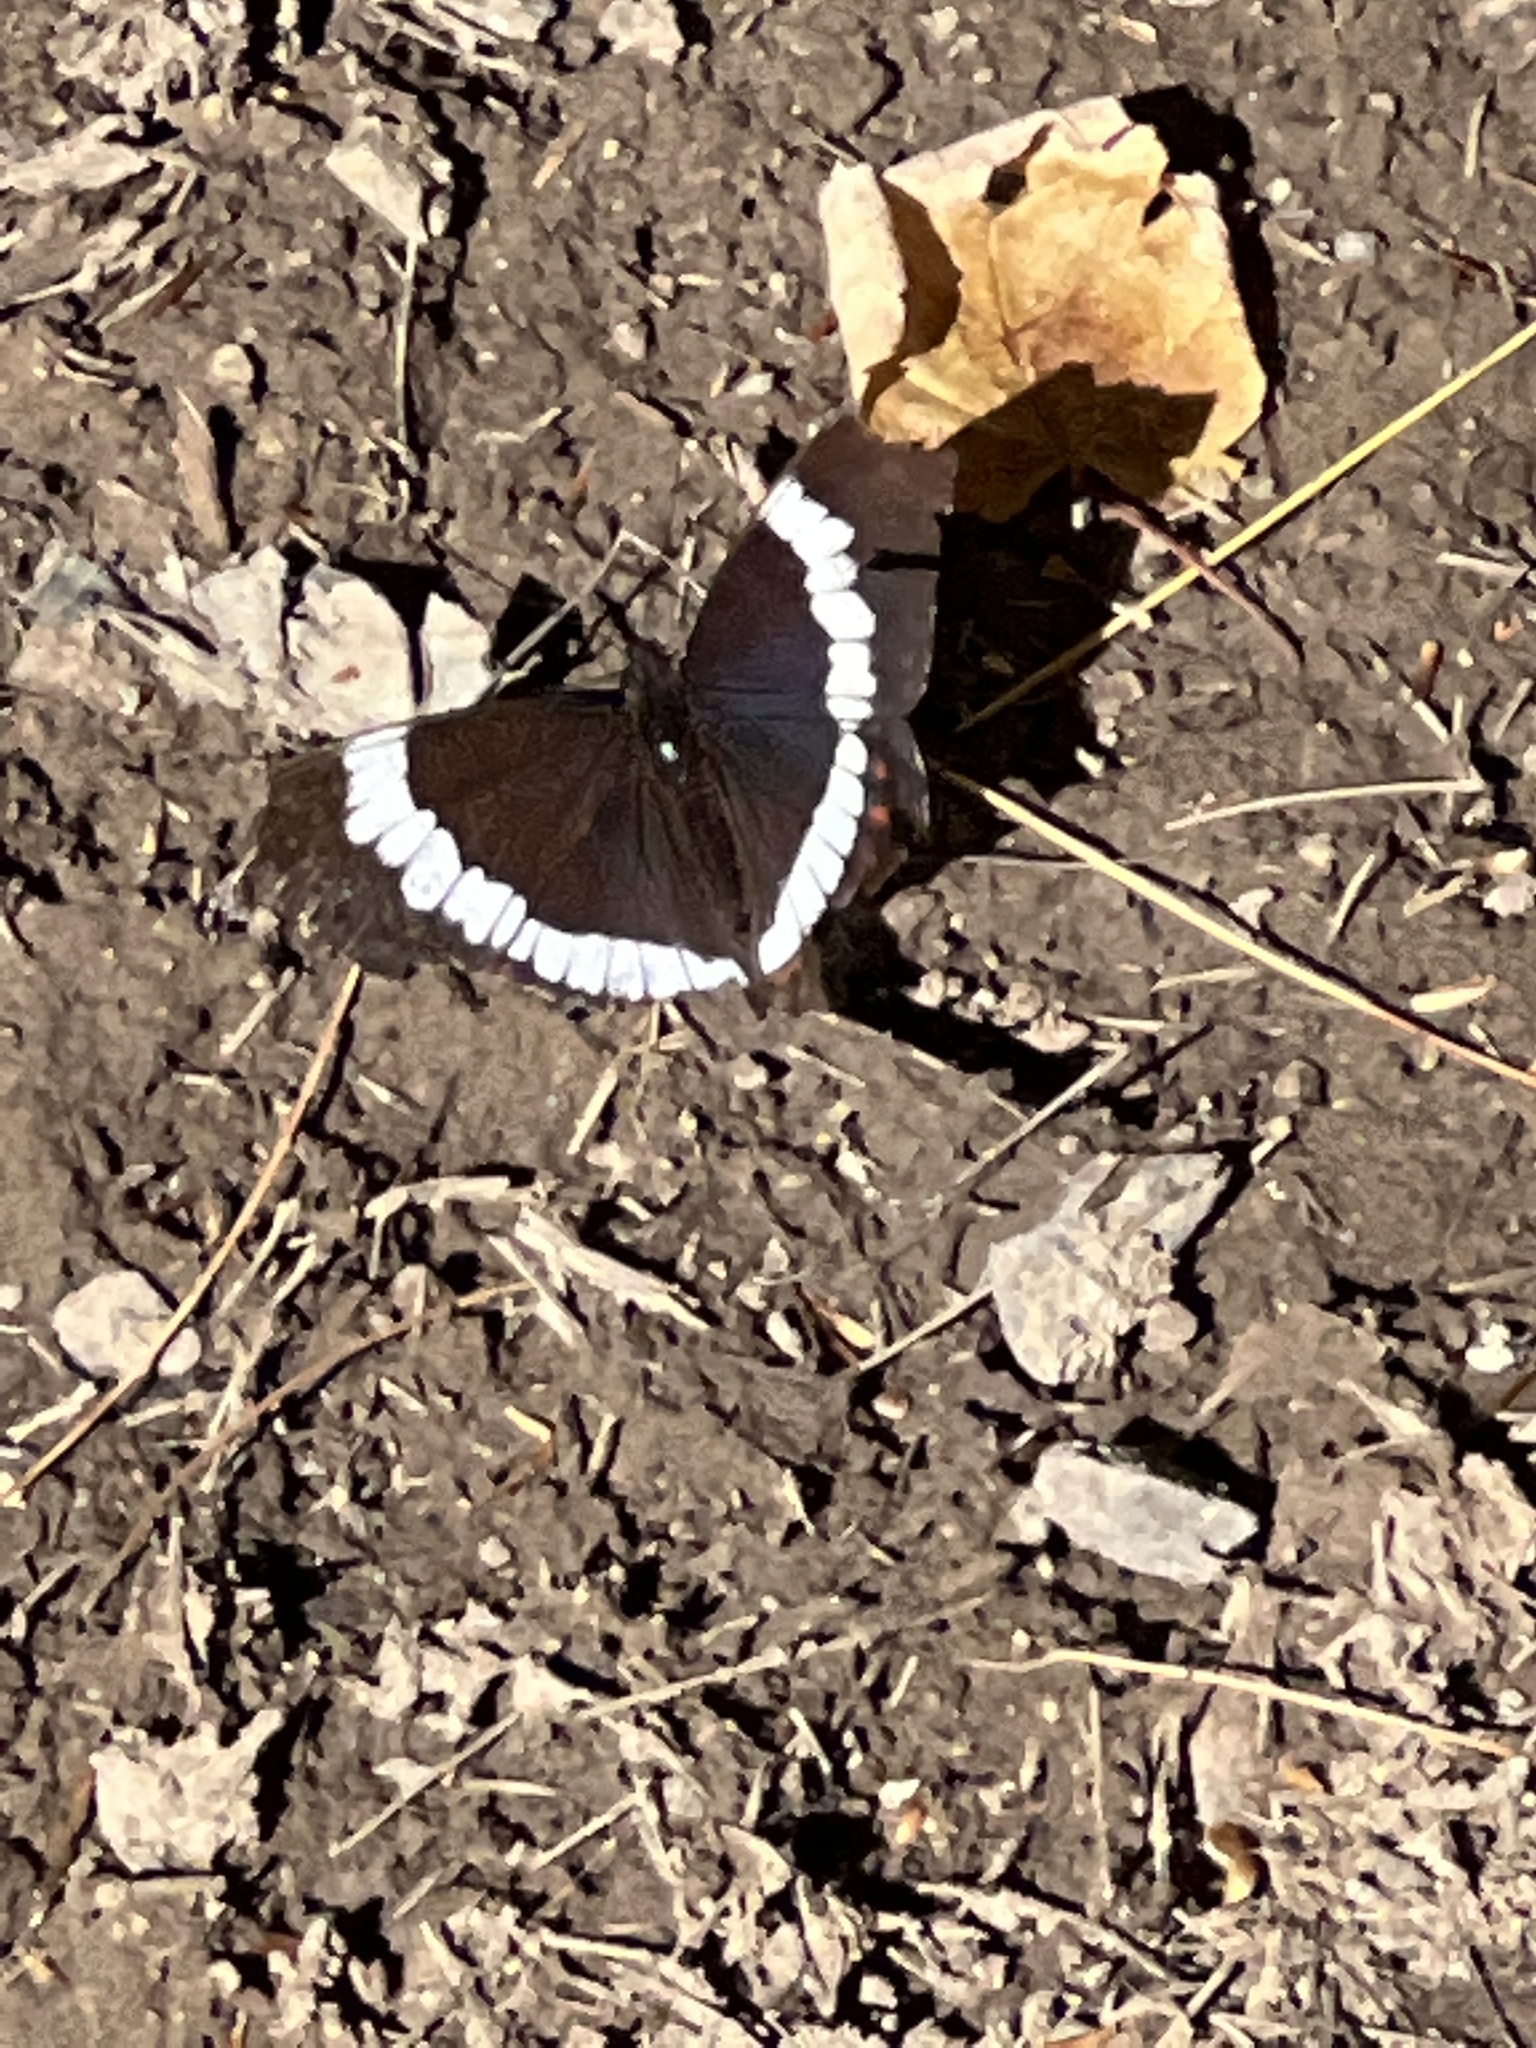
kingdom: Animalia
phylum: Arthropoda
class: Insecta
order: Lepidoptera
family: Nymphalidae
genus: Limenitis
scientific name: Limenitis arthemis
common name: Red-spotted admiral
